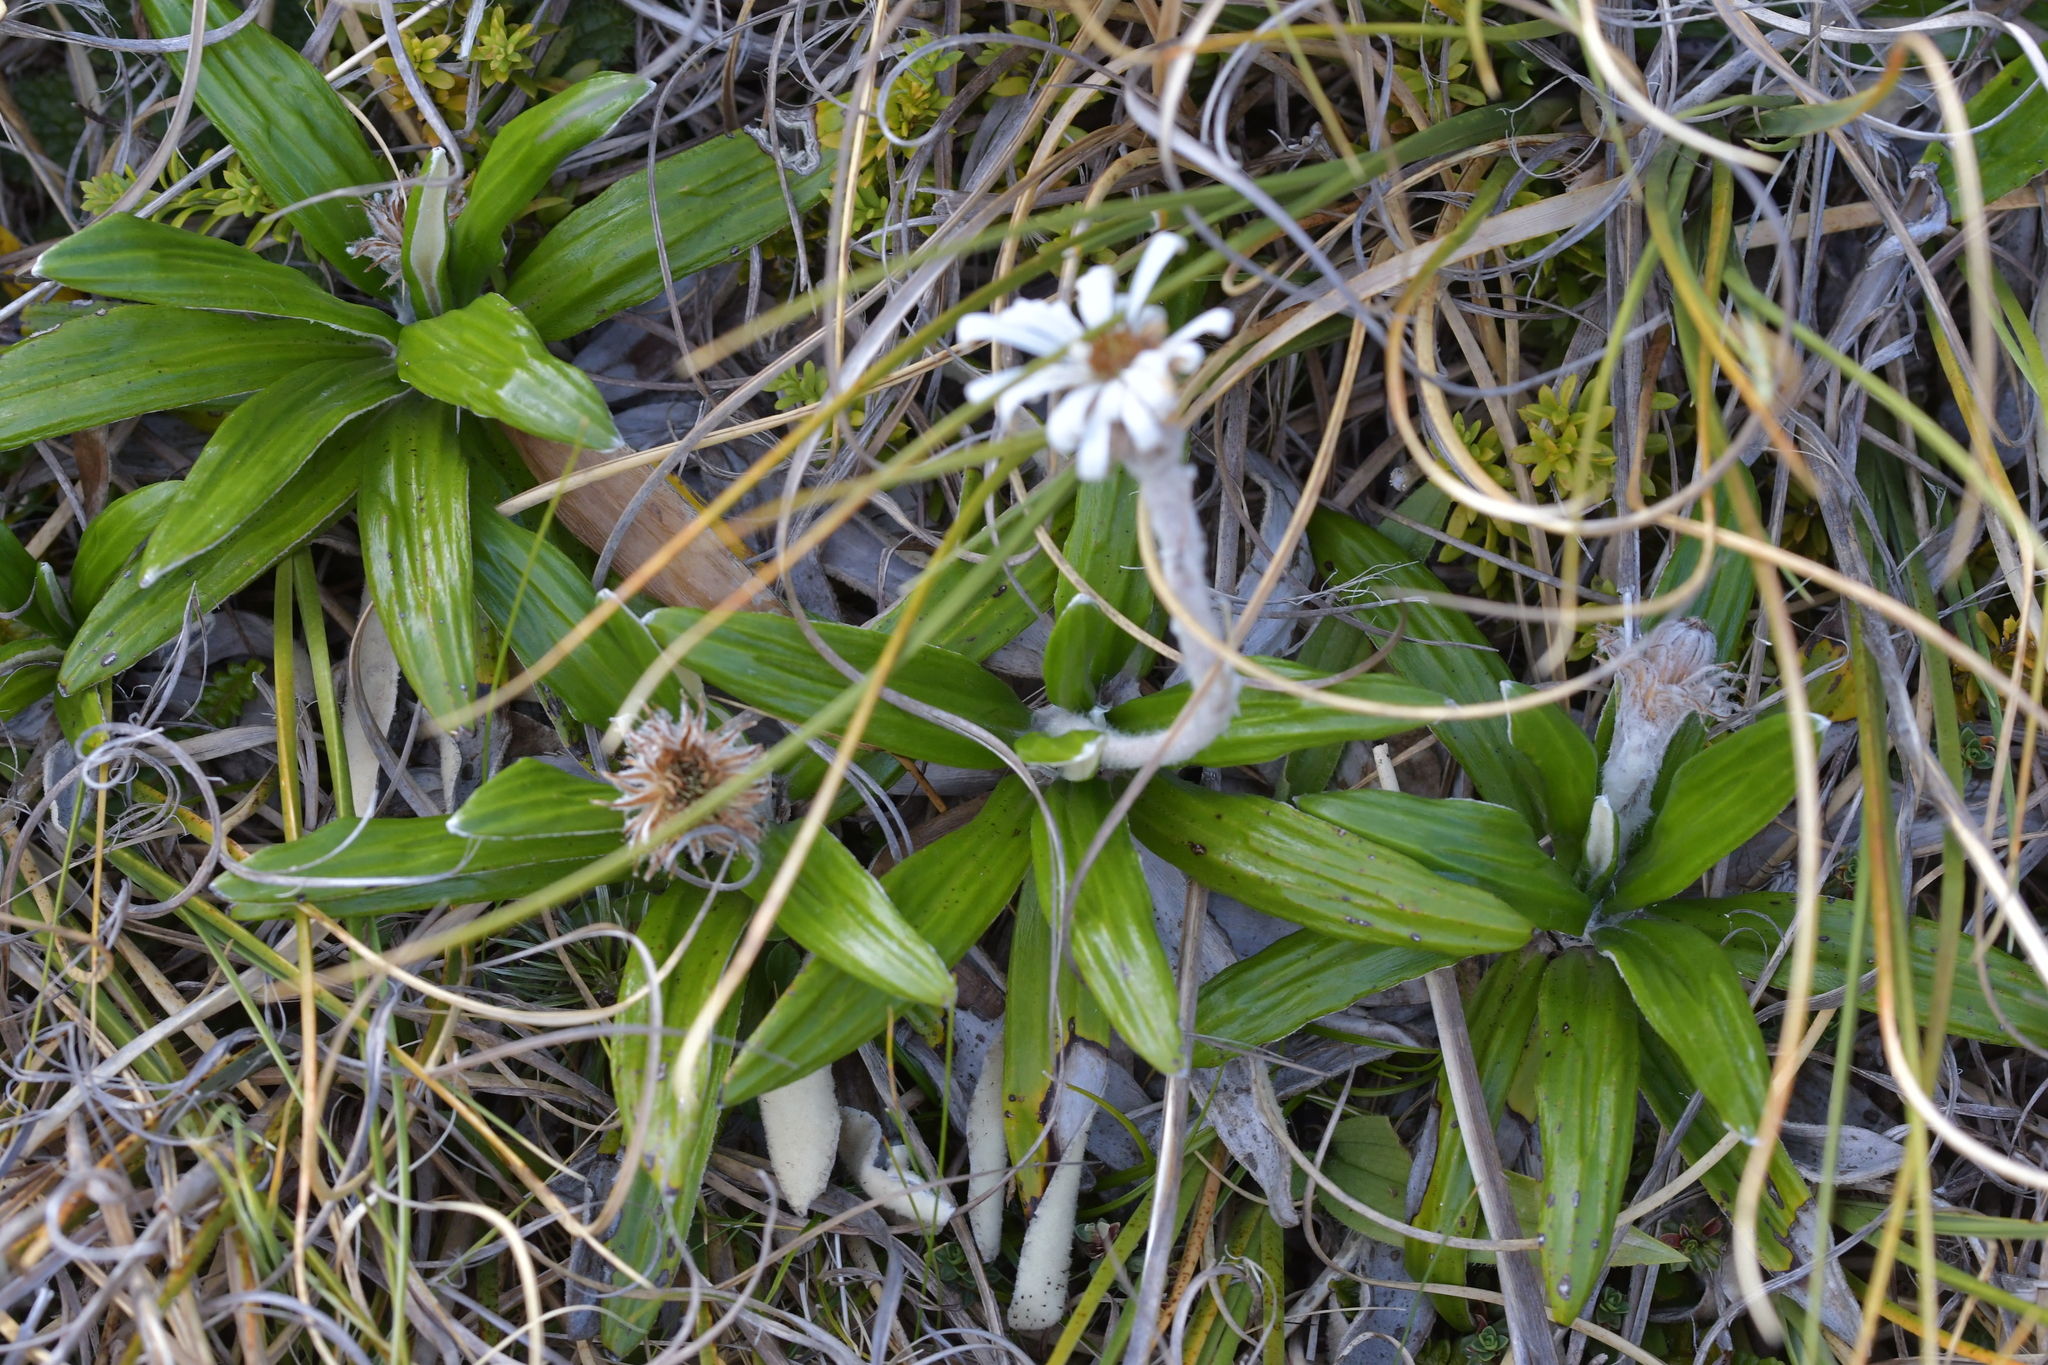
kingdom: Plantae
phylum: Tracheophyta
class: Magnoliopsida
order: Asterales
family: Asteraceae
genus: Celmisia
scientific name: Celmisia spectabilis
